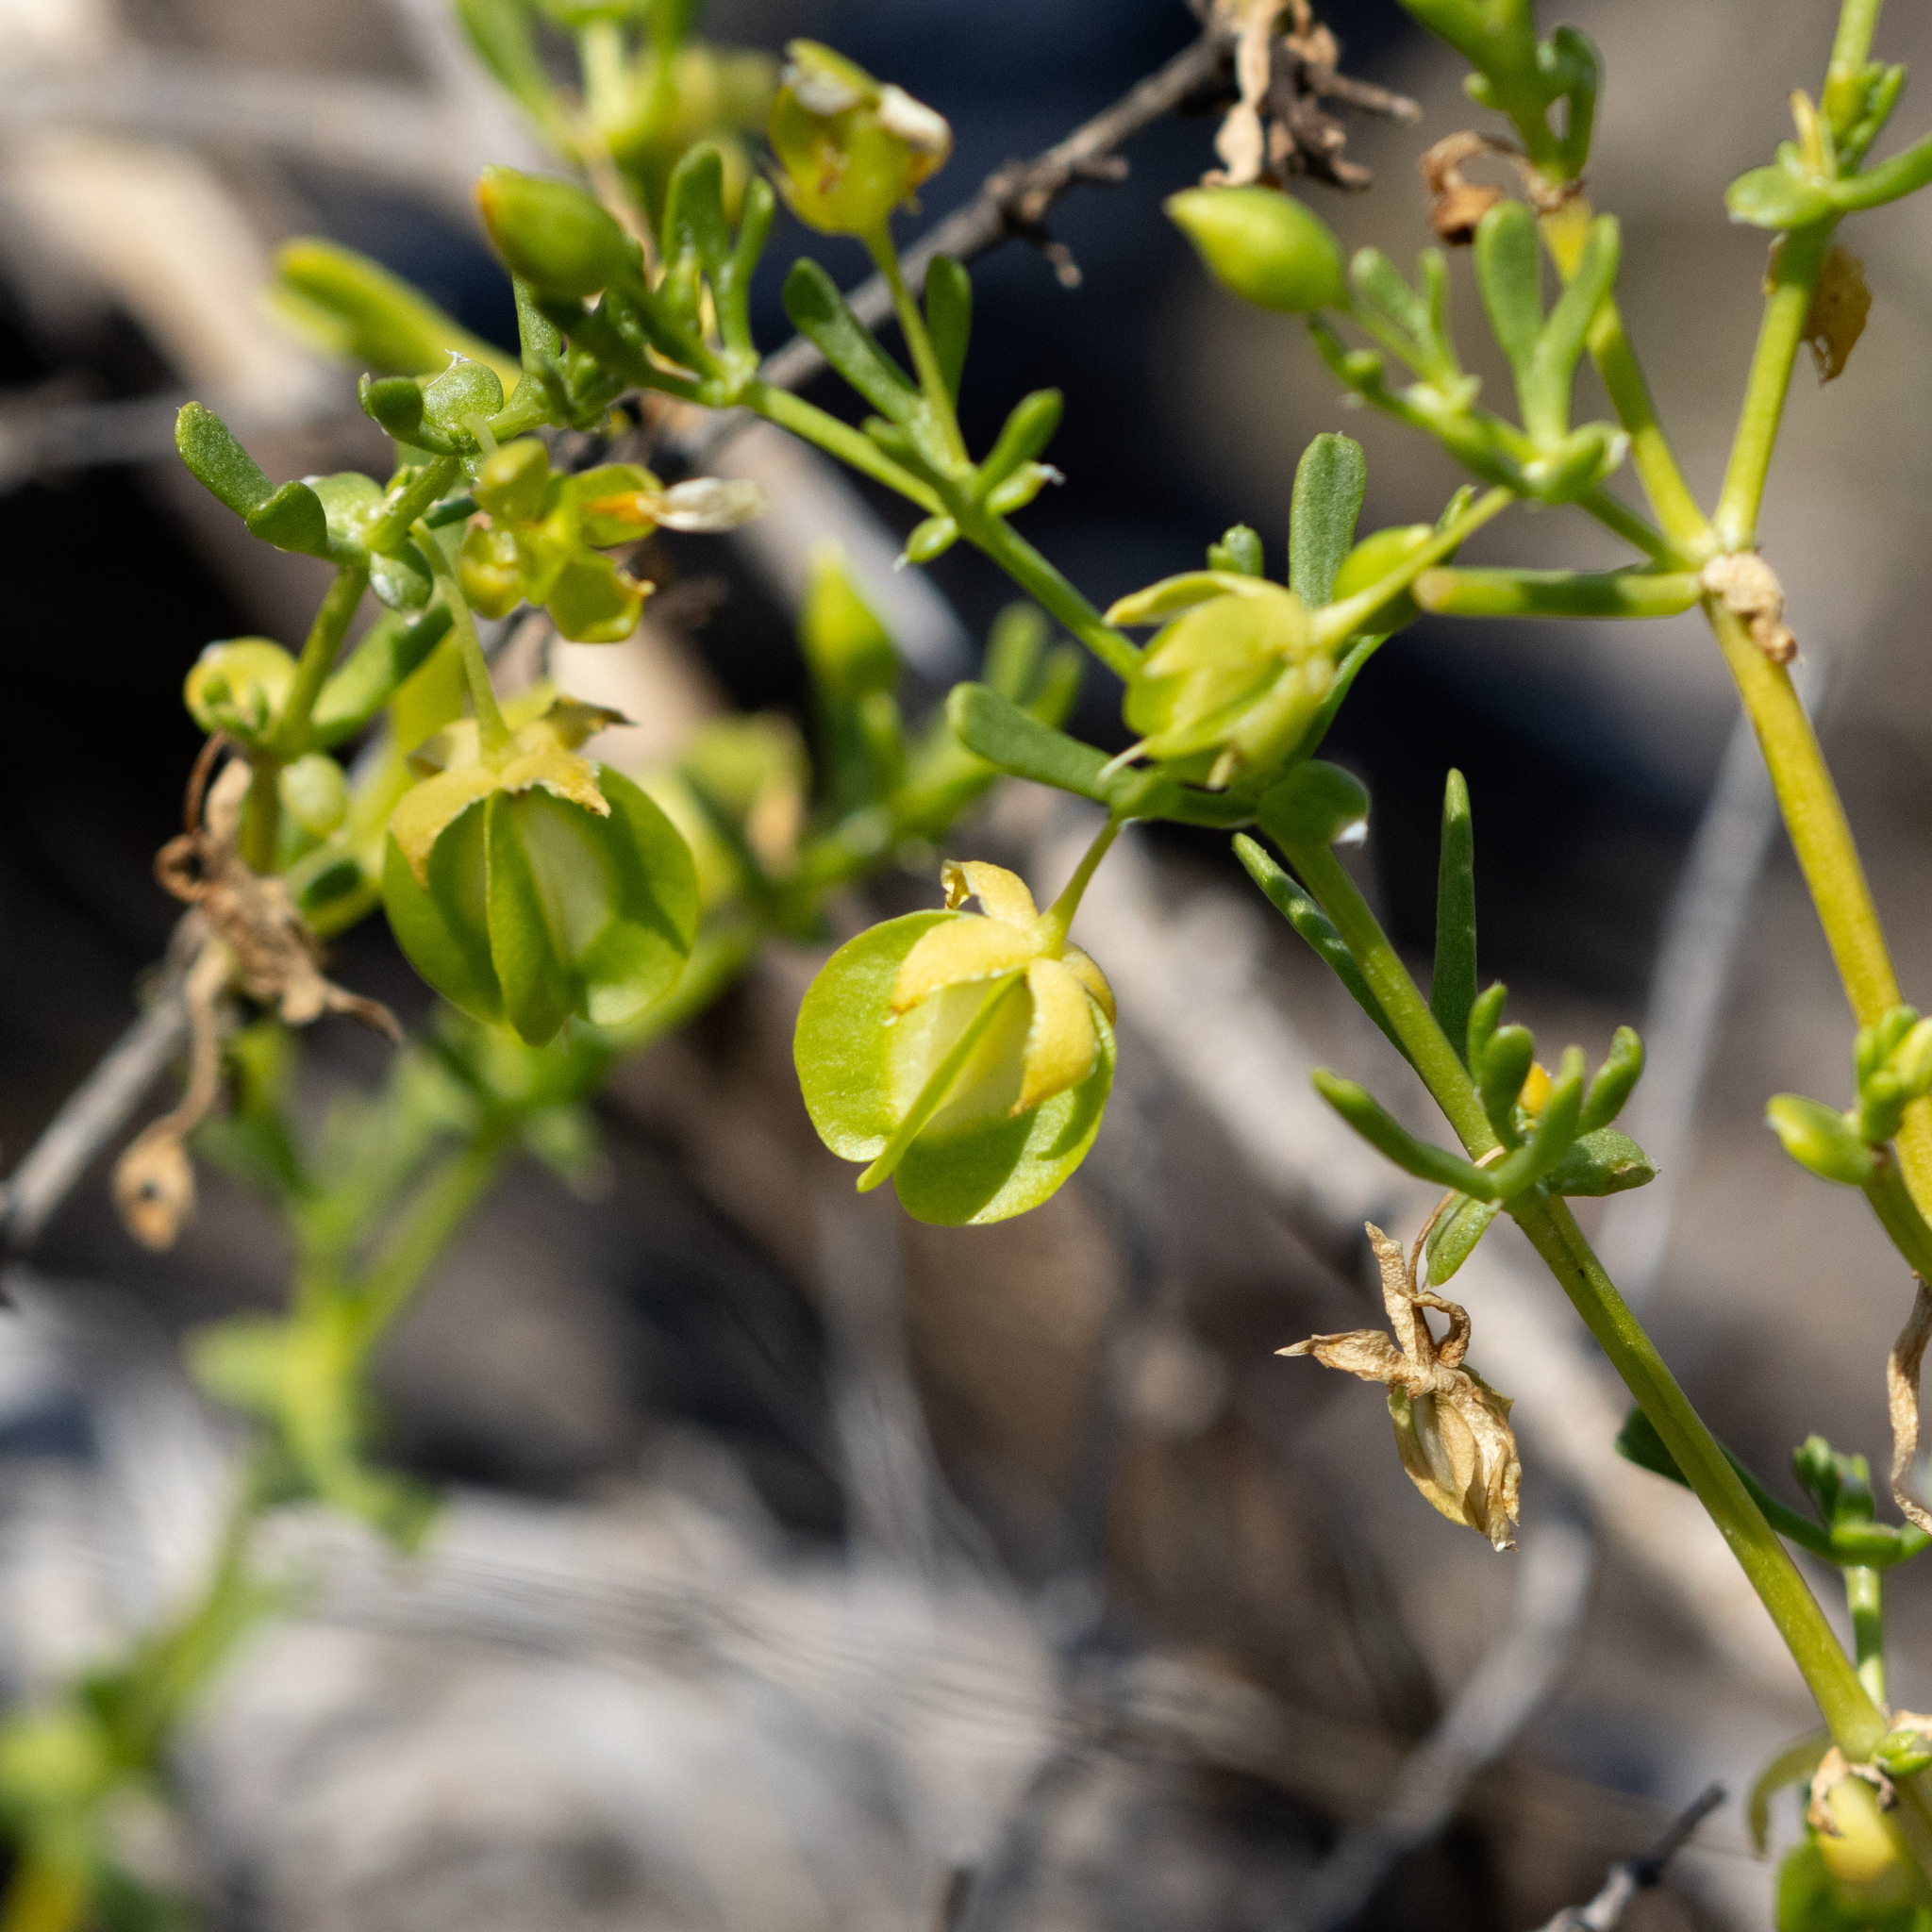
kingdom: Plantae
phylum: Tracheophyta
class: Magnoliopsida
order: Zygophyllales
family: Zygophyllaceae
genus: Roepera
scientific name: Roepera aurantiaca
